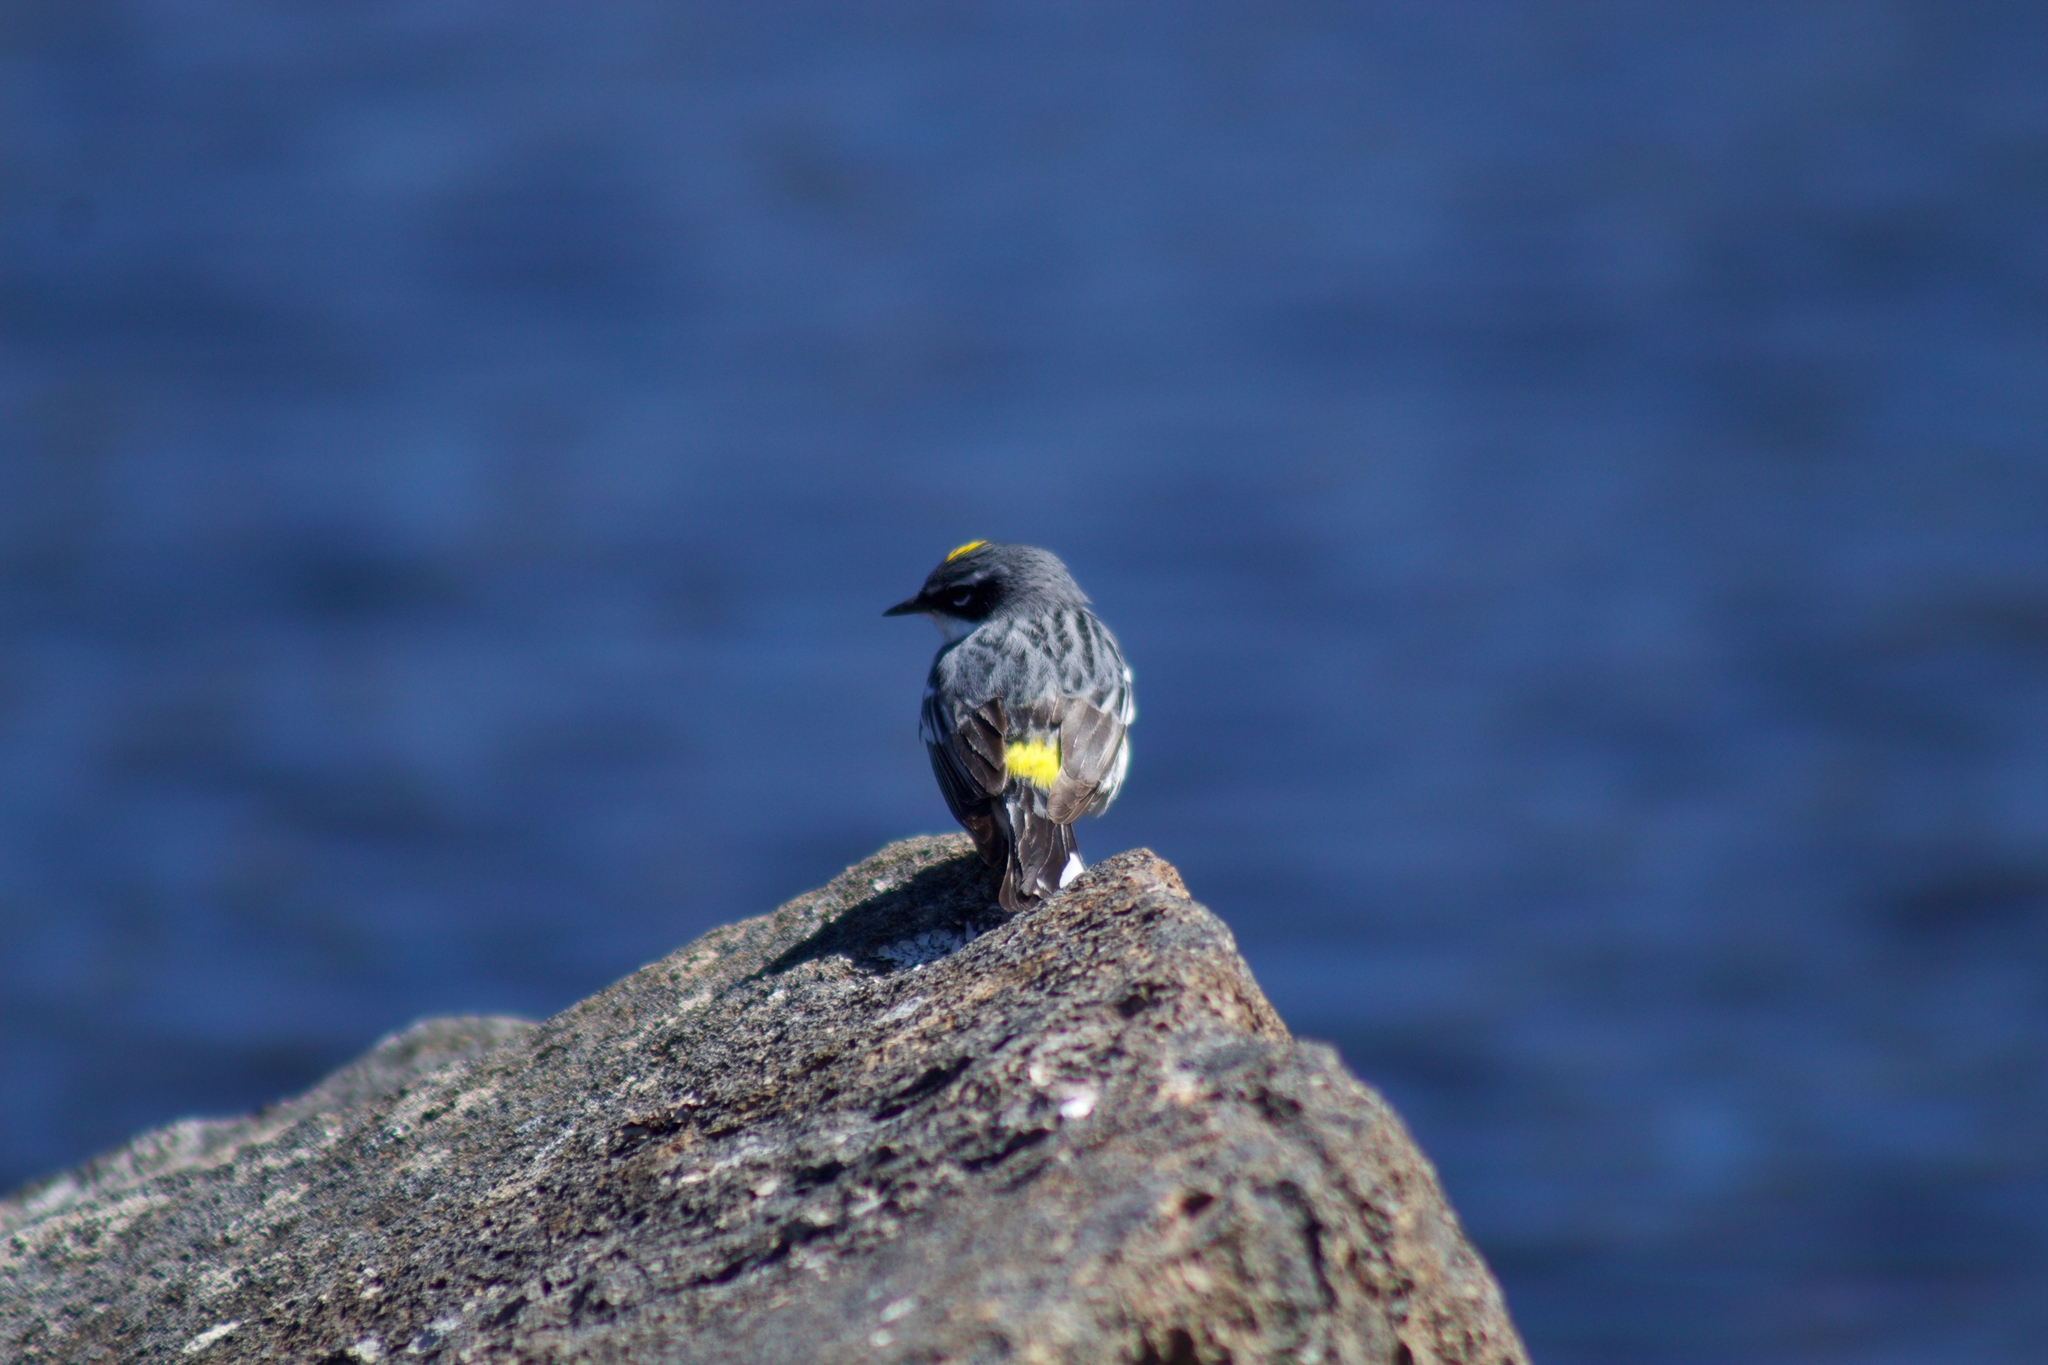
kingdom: Animalia
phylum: Chordata
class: Aves
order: Passeriformes
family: Parulidae
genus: Setophaga
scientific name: Setophaga coronata
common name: Myrtle warbler
